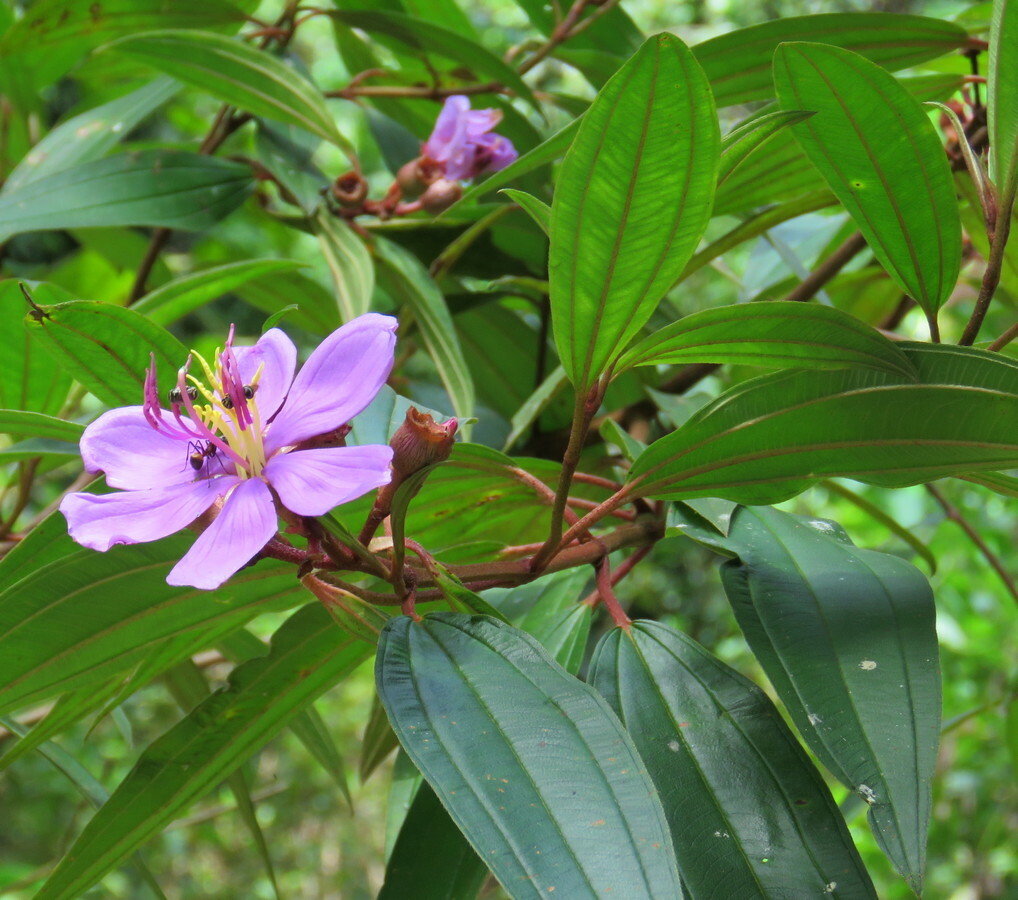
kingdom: Plantae
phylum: Tracheophyta
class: Magnoliopsida
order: Myrtales
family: Melastomataceae
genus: Melastoma
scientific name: Melastoma malabathricum
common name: Indian-rhododendron
